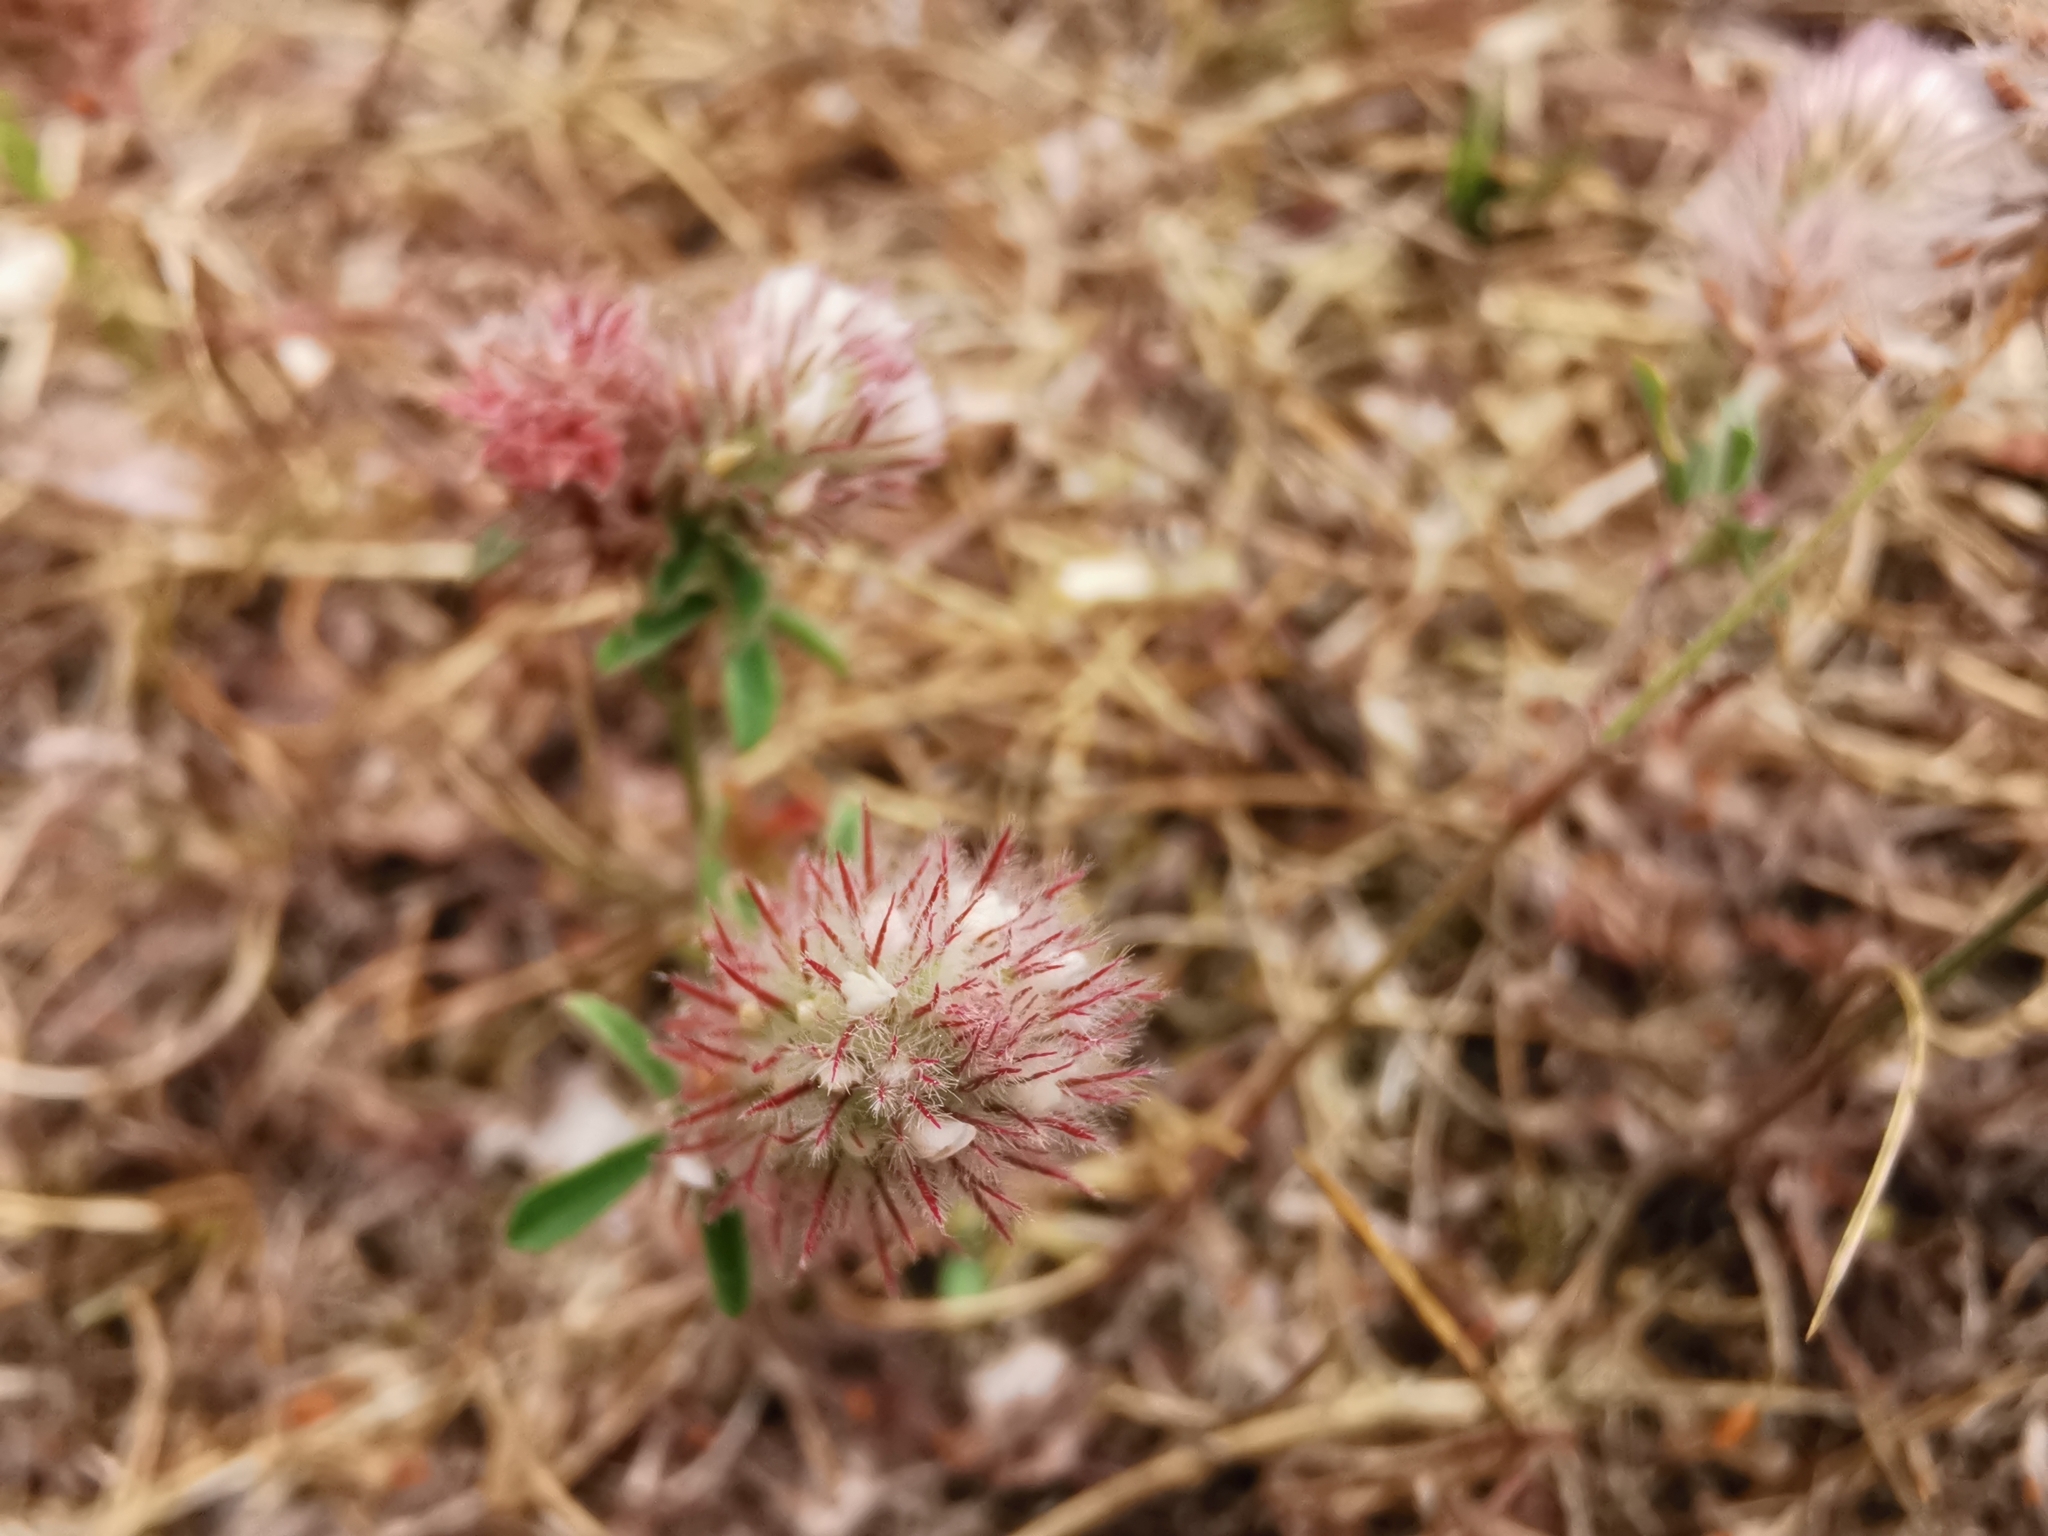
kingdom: Plantae
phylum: Tracheophyta
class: Magnoliopsida
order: Fabales
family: Fabaceae
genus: Trifolium
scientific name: Trifolium arvense
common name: Hare's-foot clover
